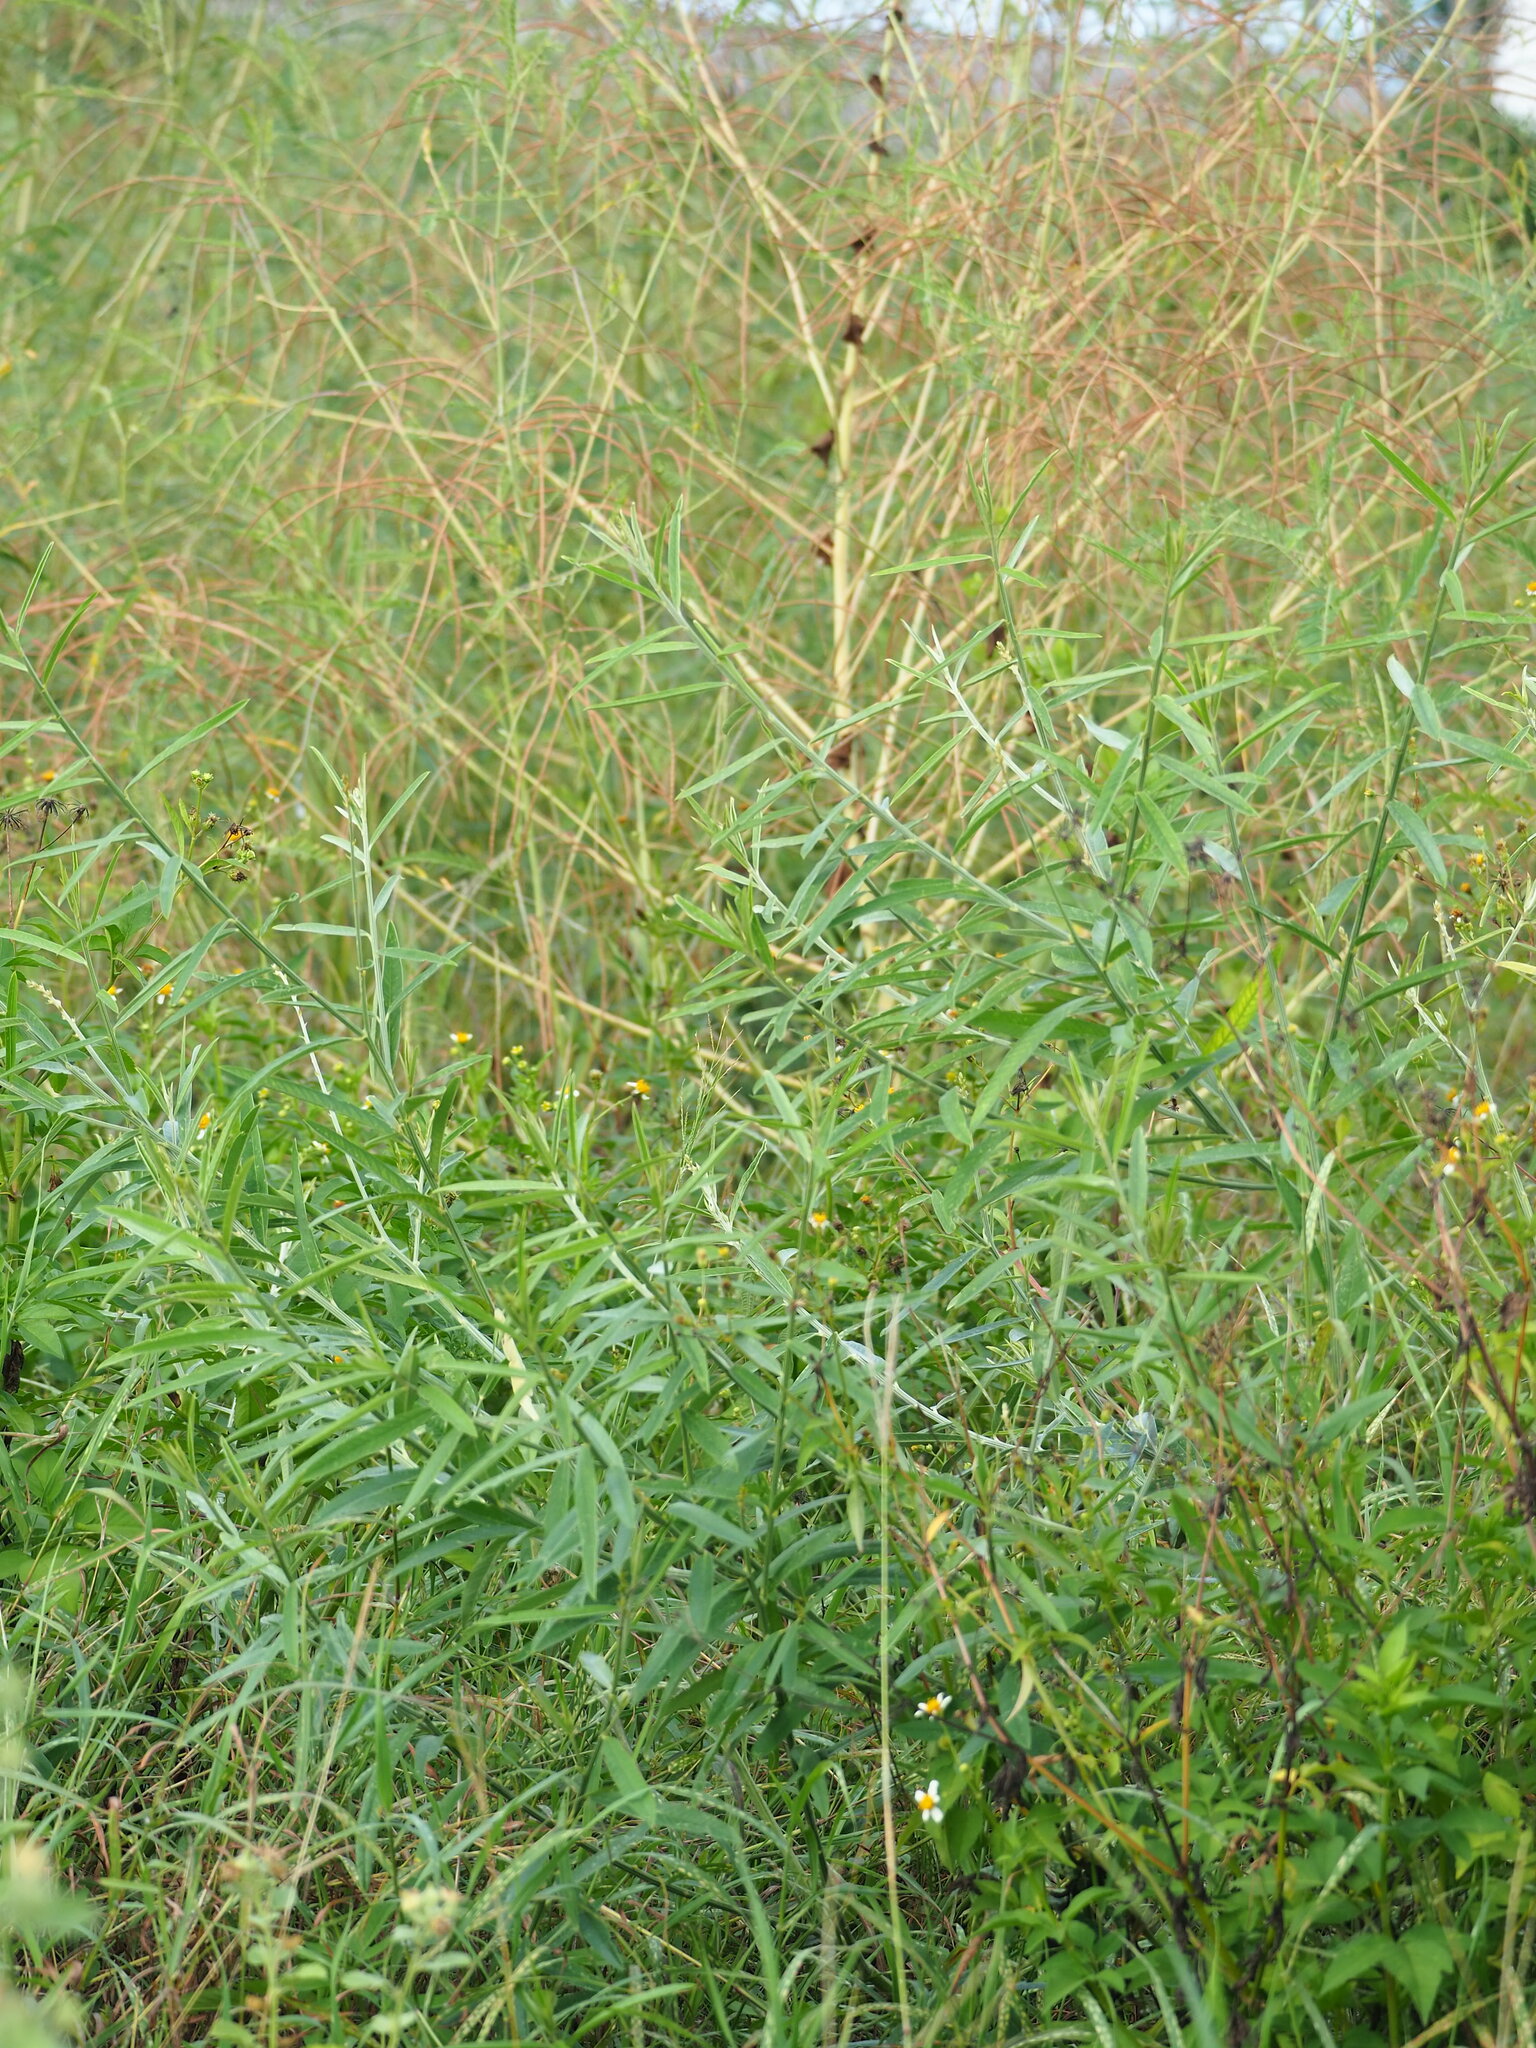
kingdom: Plantae
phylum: Tracheophyta
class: Magnoliopsida
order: Fabales
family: Fabaceae
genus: Crotalaria
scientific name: Crotalaria juncea
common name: Sunn hemp
